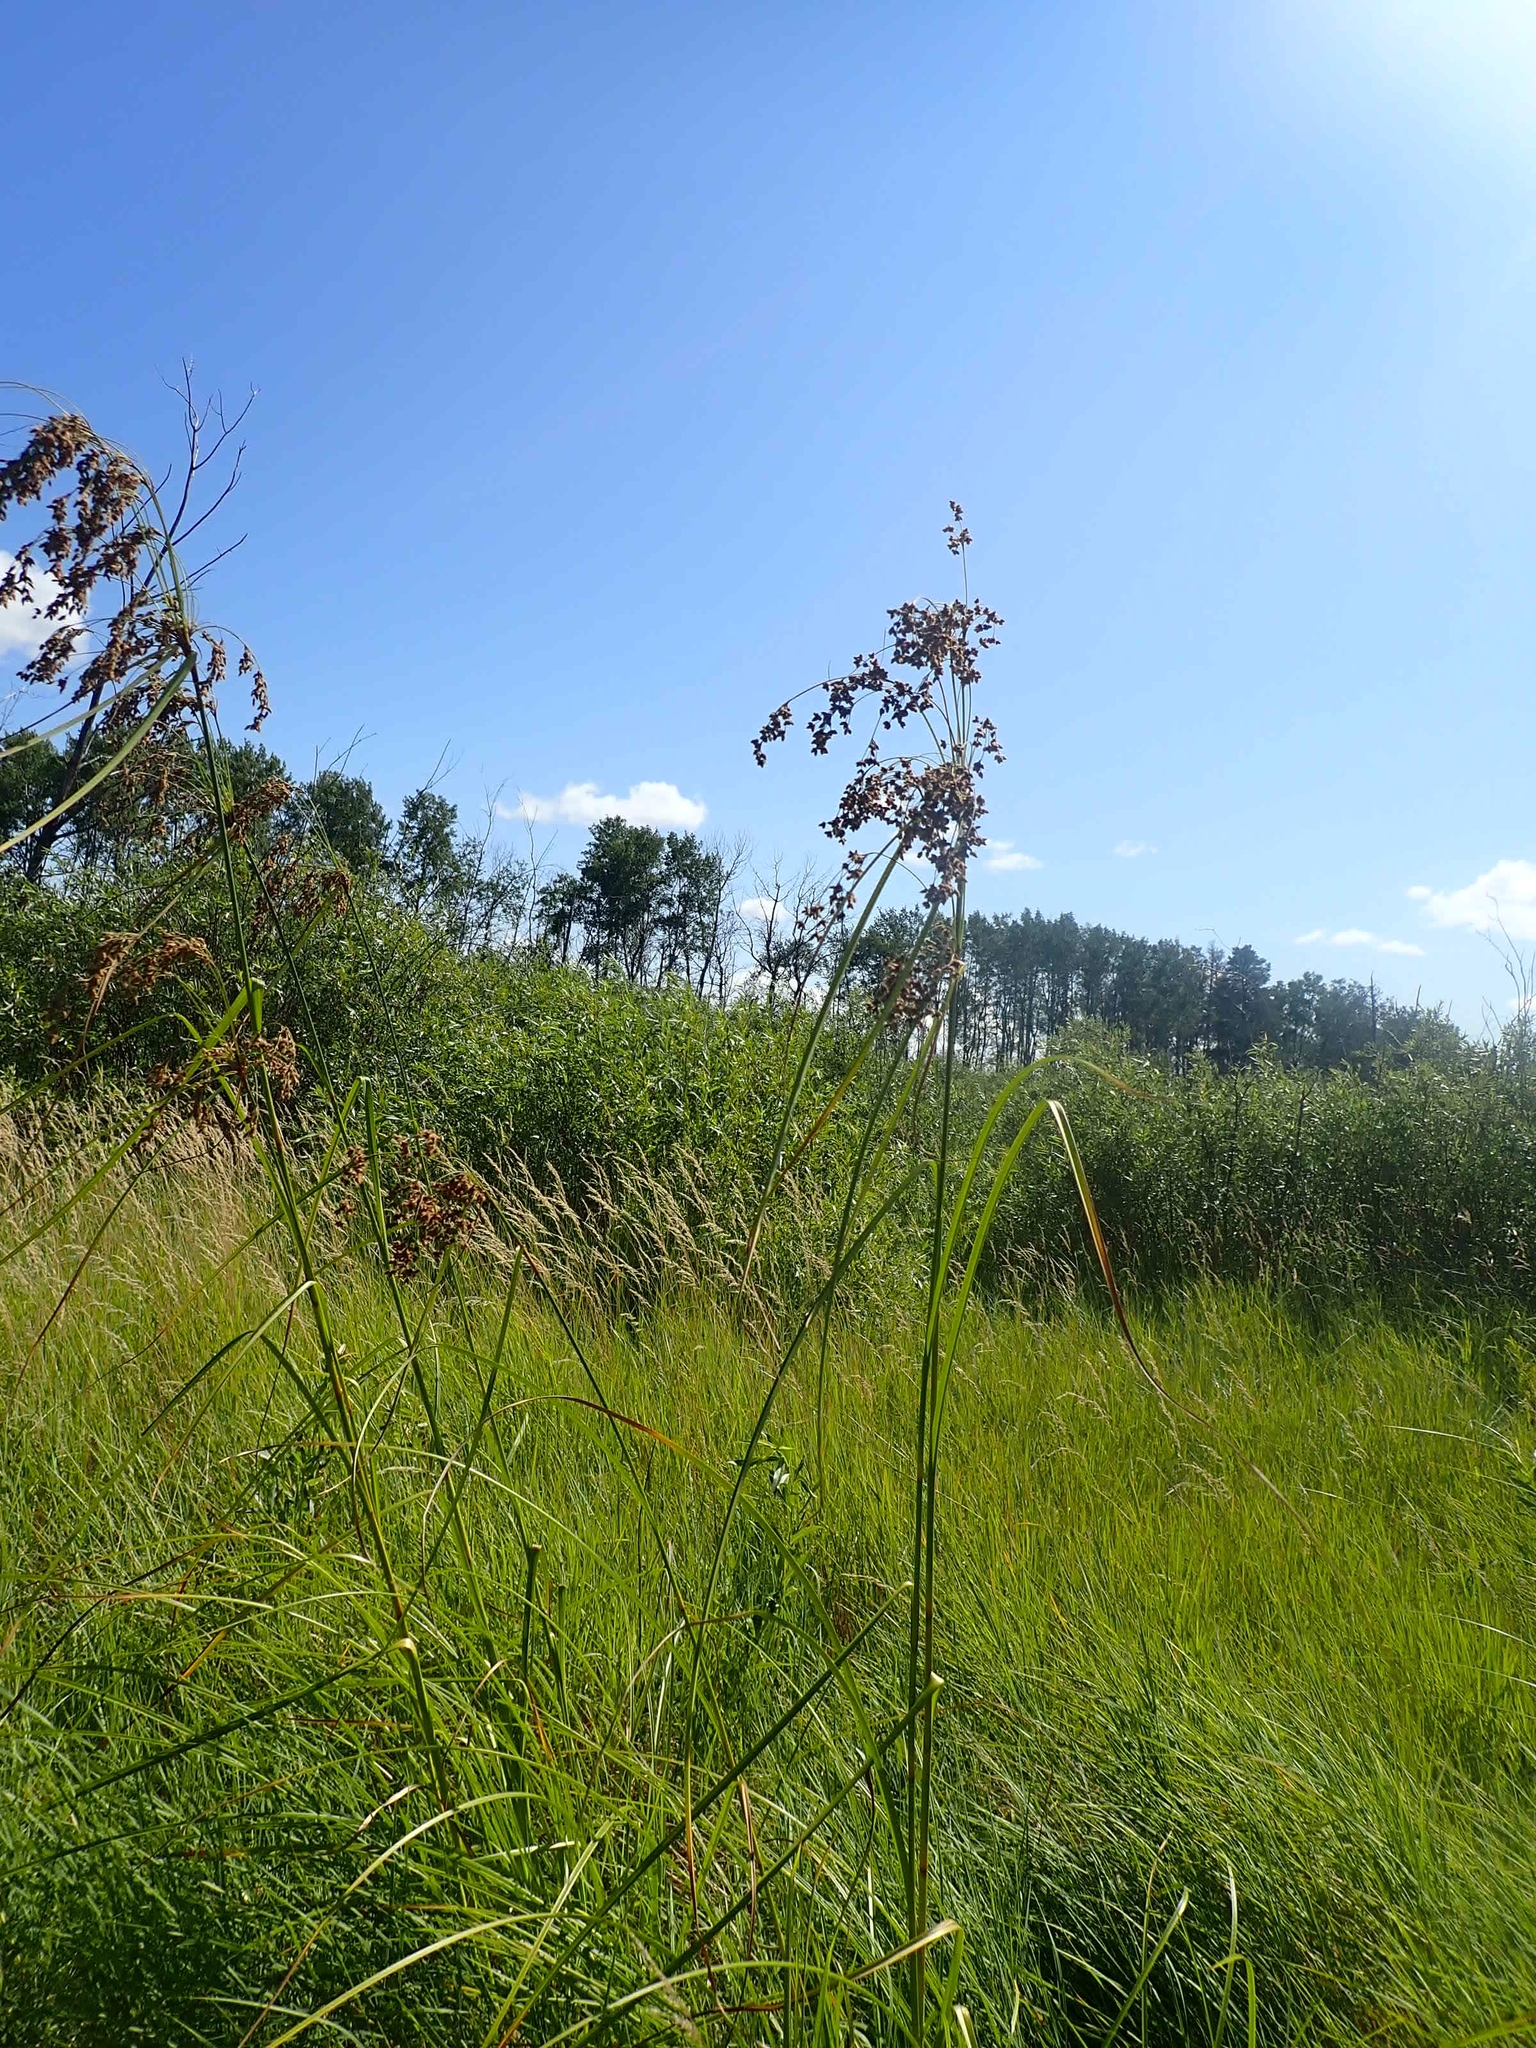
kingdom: Plantae
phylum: Tracheophyta
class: Liliopsida
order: Poales
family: Cyperaceae
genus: Scirpus
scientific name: Scirpus cyperinus
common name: Black-sheathed bulrush
